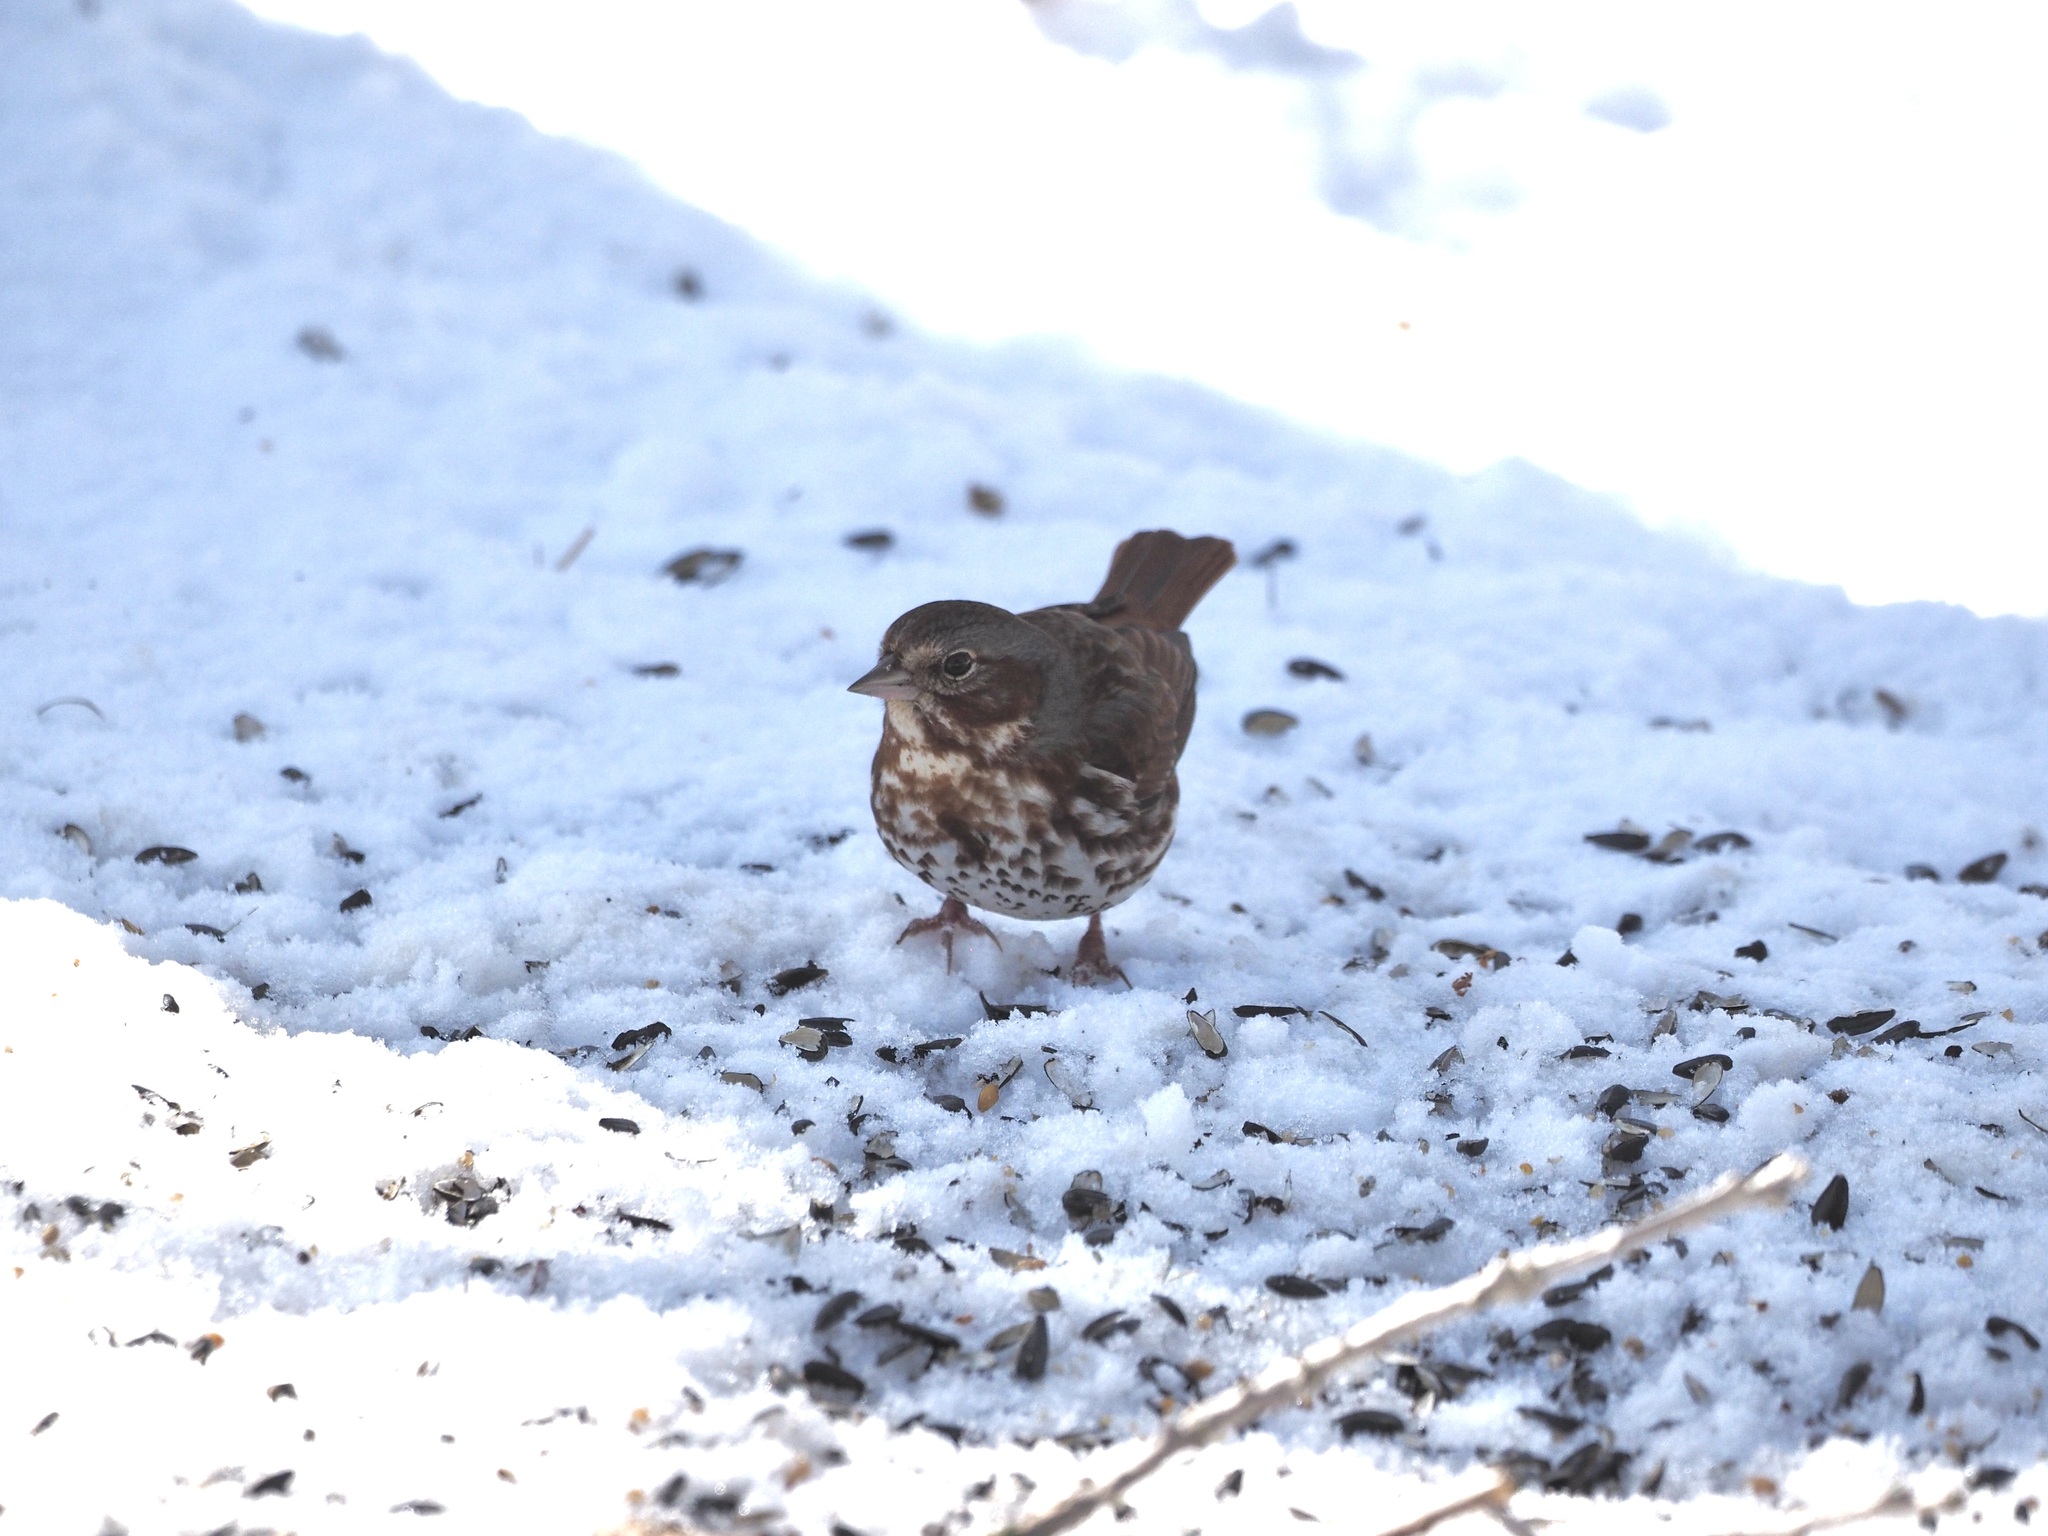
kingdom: Animalia
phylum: Chordata
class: Aves
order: Passeriformes
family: Passerellidae
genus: Passerella
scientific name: Passerella iliaca
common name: Fox sparrow
